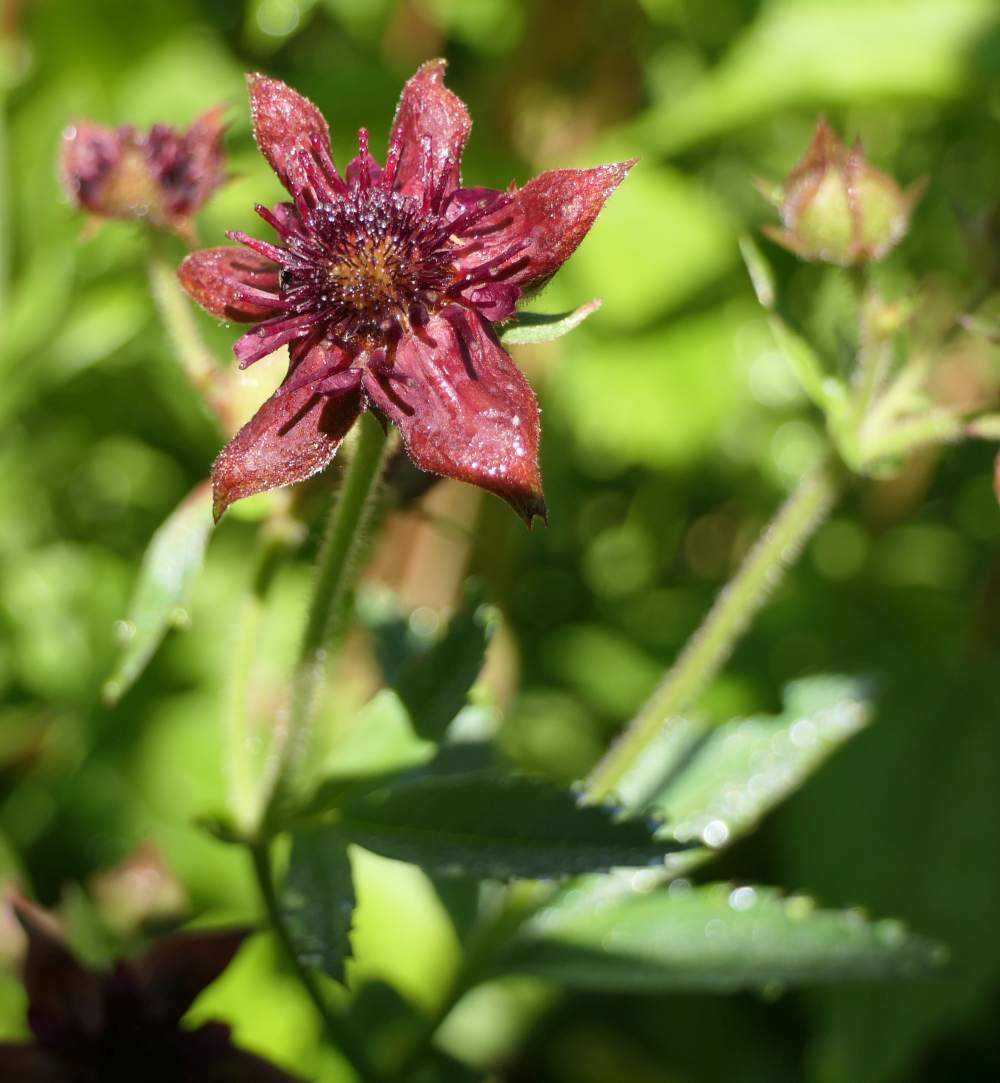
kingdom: Plantae
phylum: Tracheophyta
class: Magnoliopsida
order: Rosales
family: Rosaceae
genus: Comarum
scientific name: Comarum palustre
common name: Marsh cinquefoil
